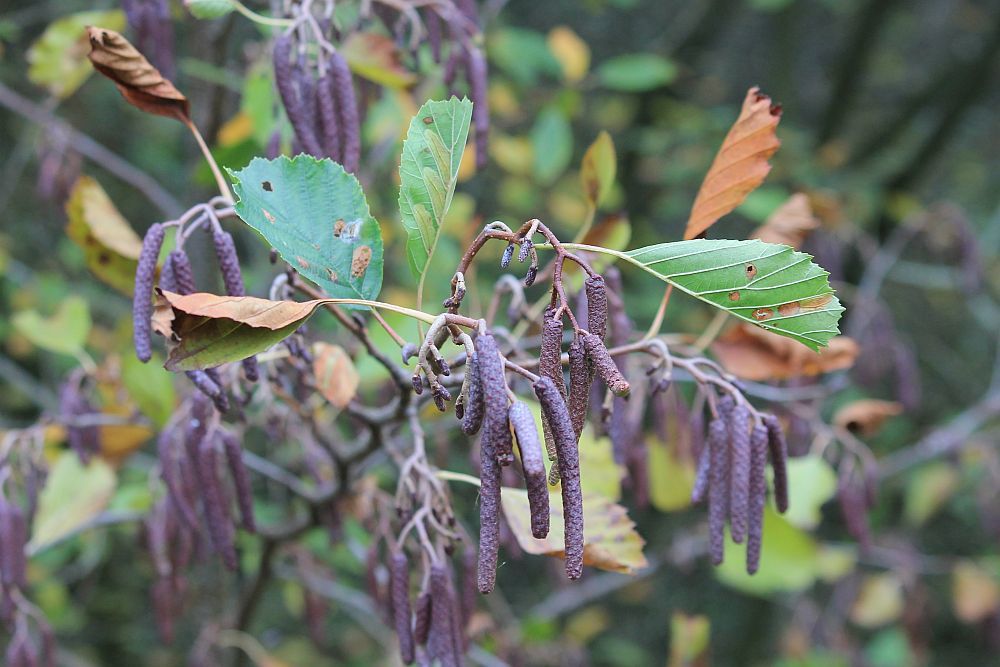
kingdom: Plantae
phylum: Tracheophyta
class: Magnoliopsida
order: Fagales
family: Betulaceae
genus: Alnus
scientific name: Alnus glutinosa
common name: Black alder
